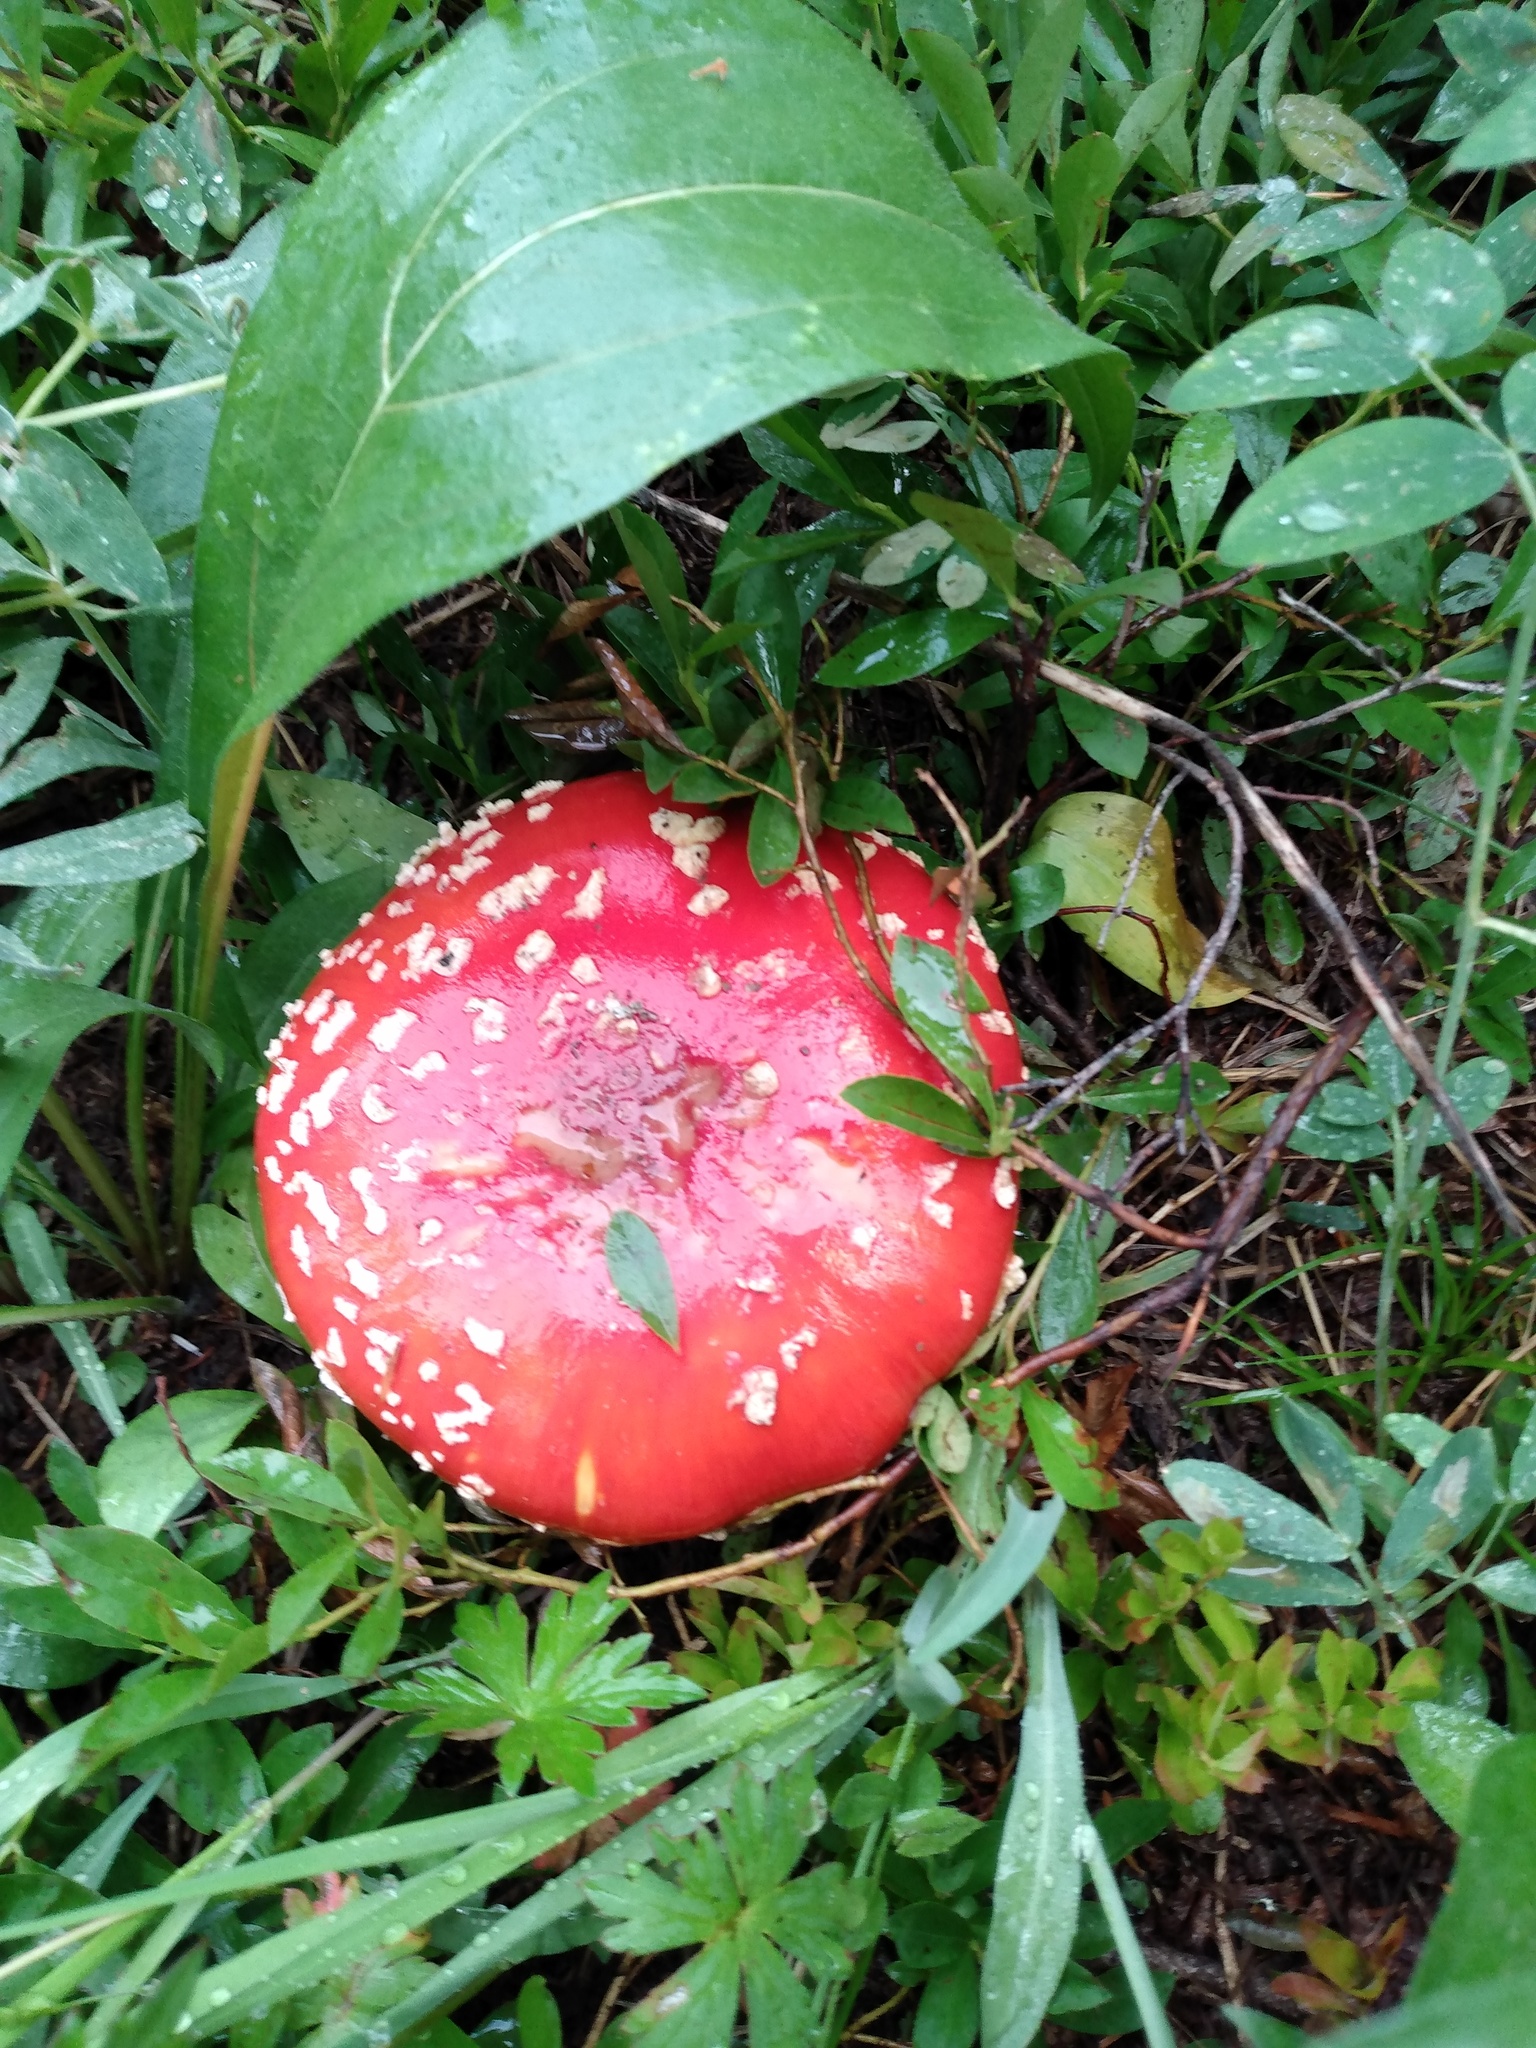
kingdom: Fungi
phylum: Basidiomycota
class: Agaricomycetes
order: Agaricales
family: Amanitaceae
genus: Amanita
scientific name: Amanita muscaria
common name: Fly agaric
